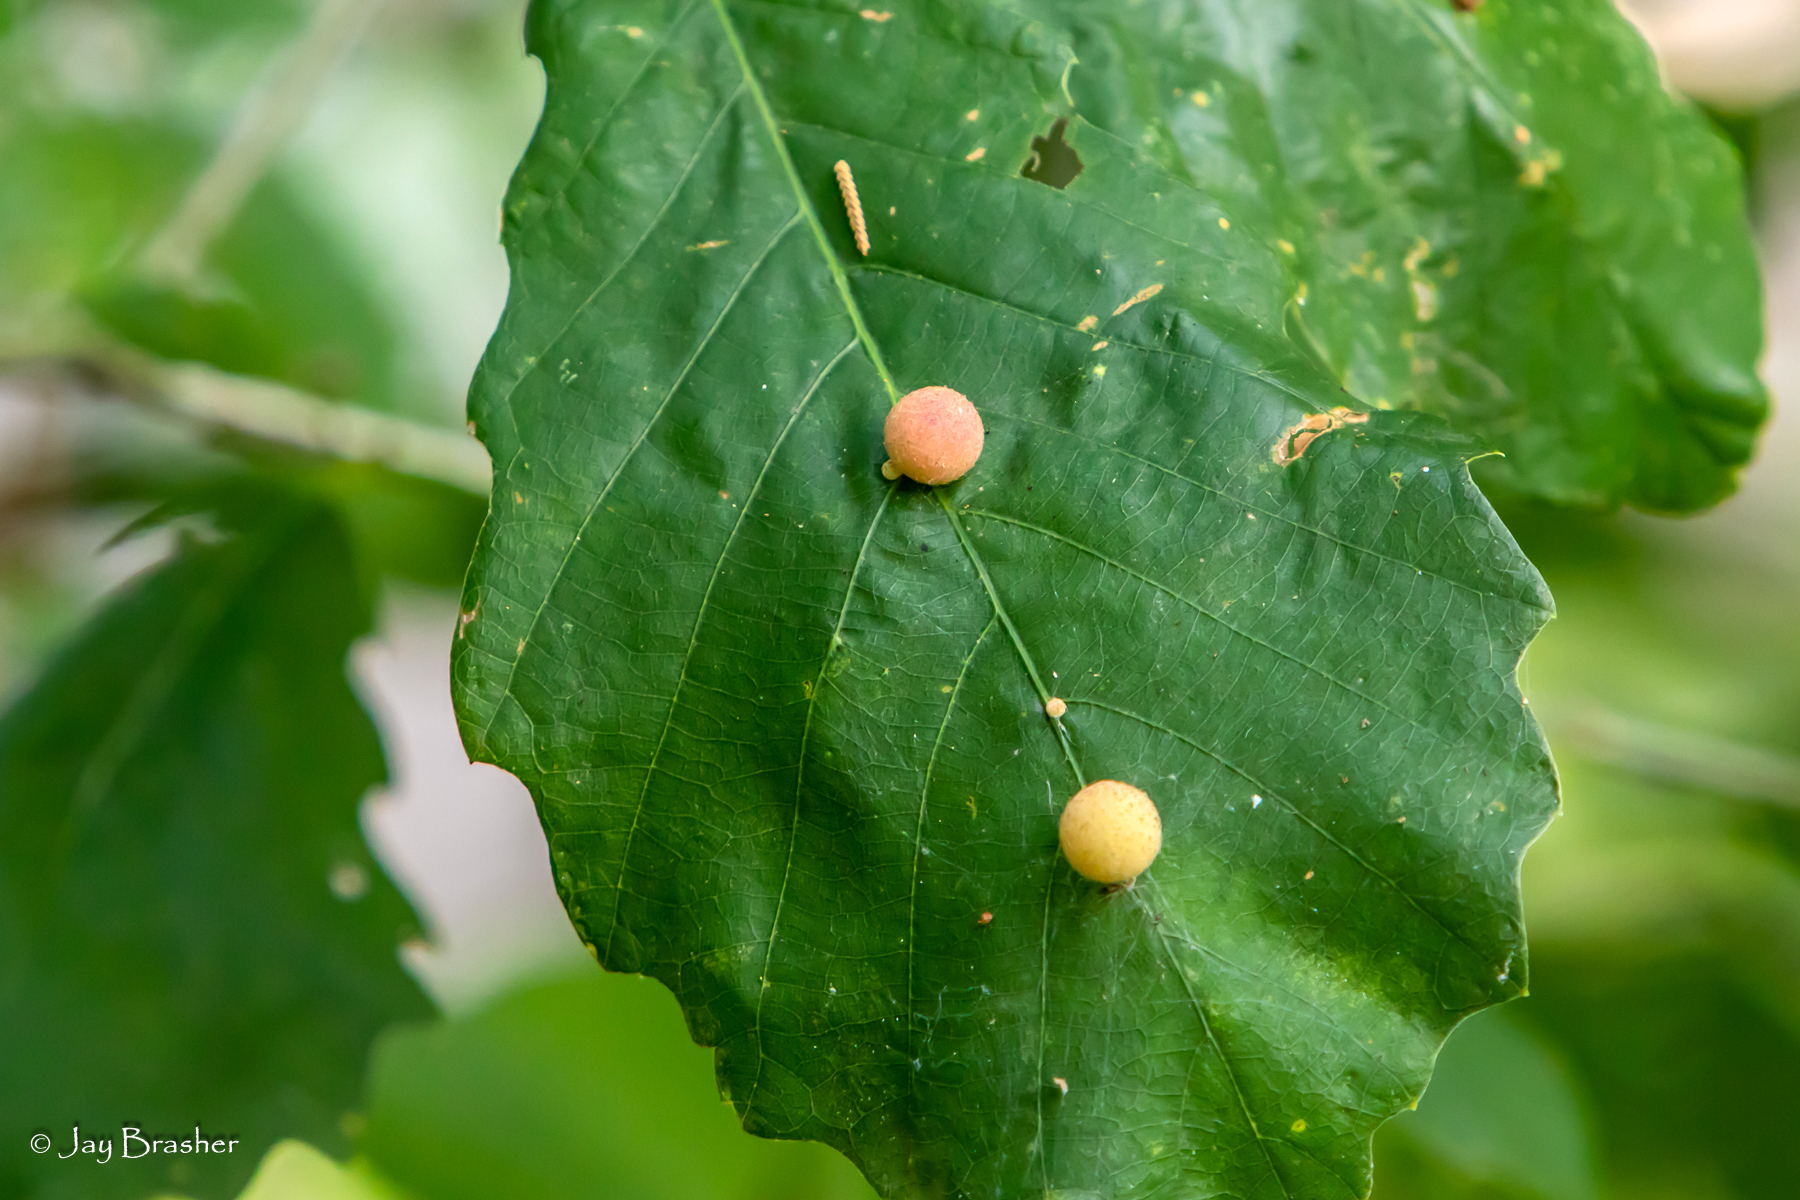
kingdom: Animalia
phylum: Arthropoda
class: Insecta
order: Hymenoptera
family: Cynipidae
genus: Acraspis
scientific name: Acraspis quercushirta
